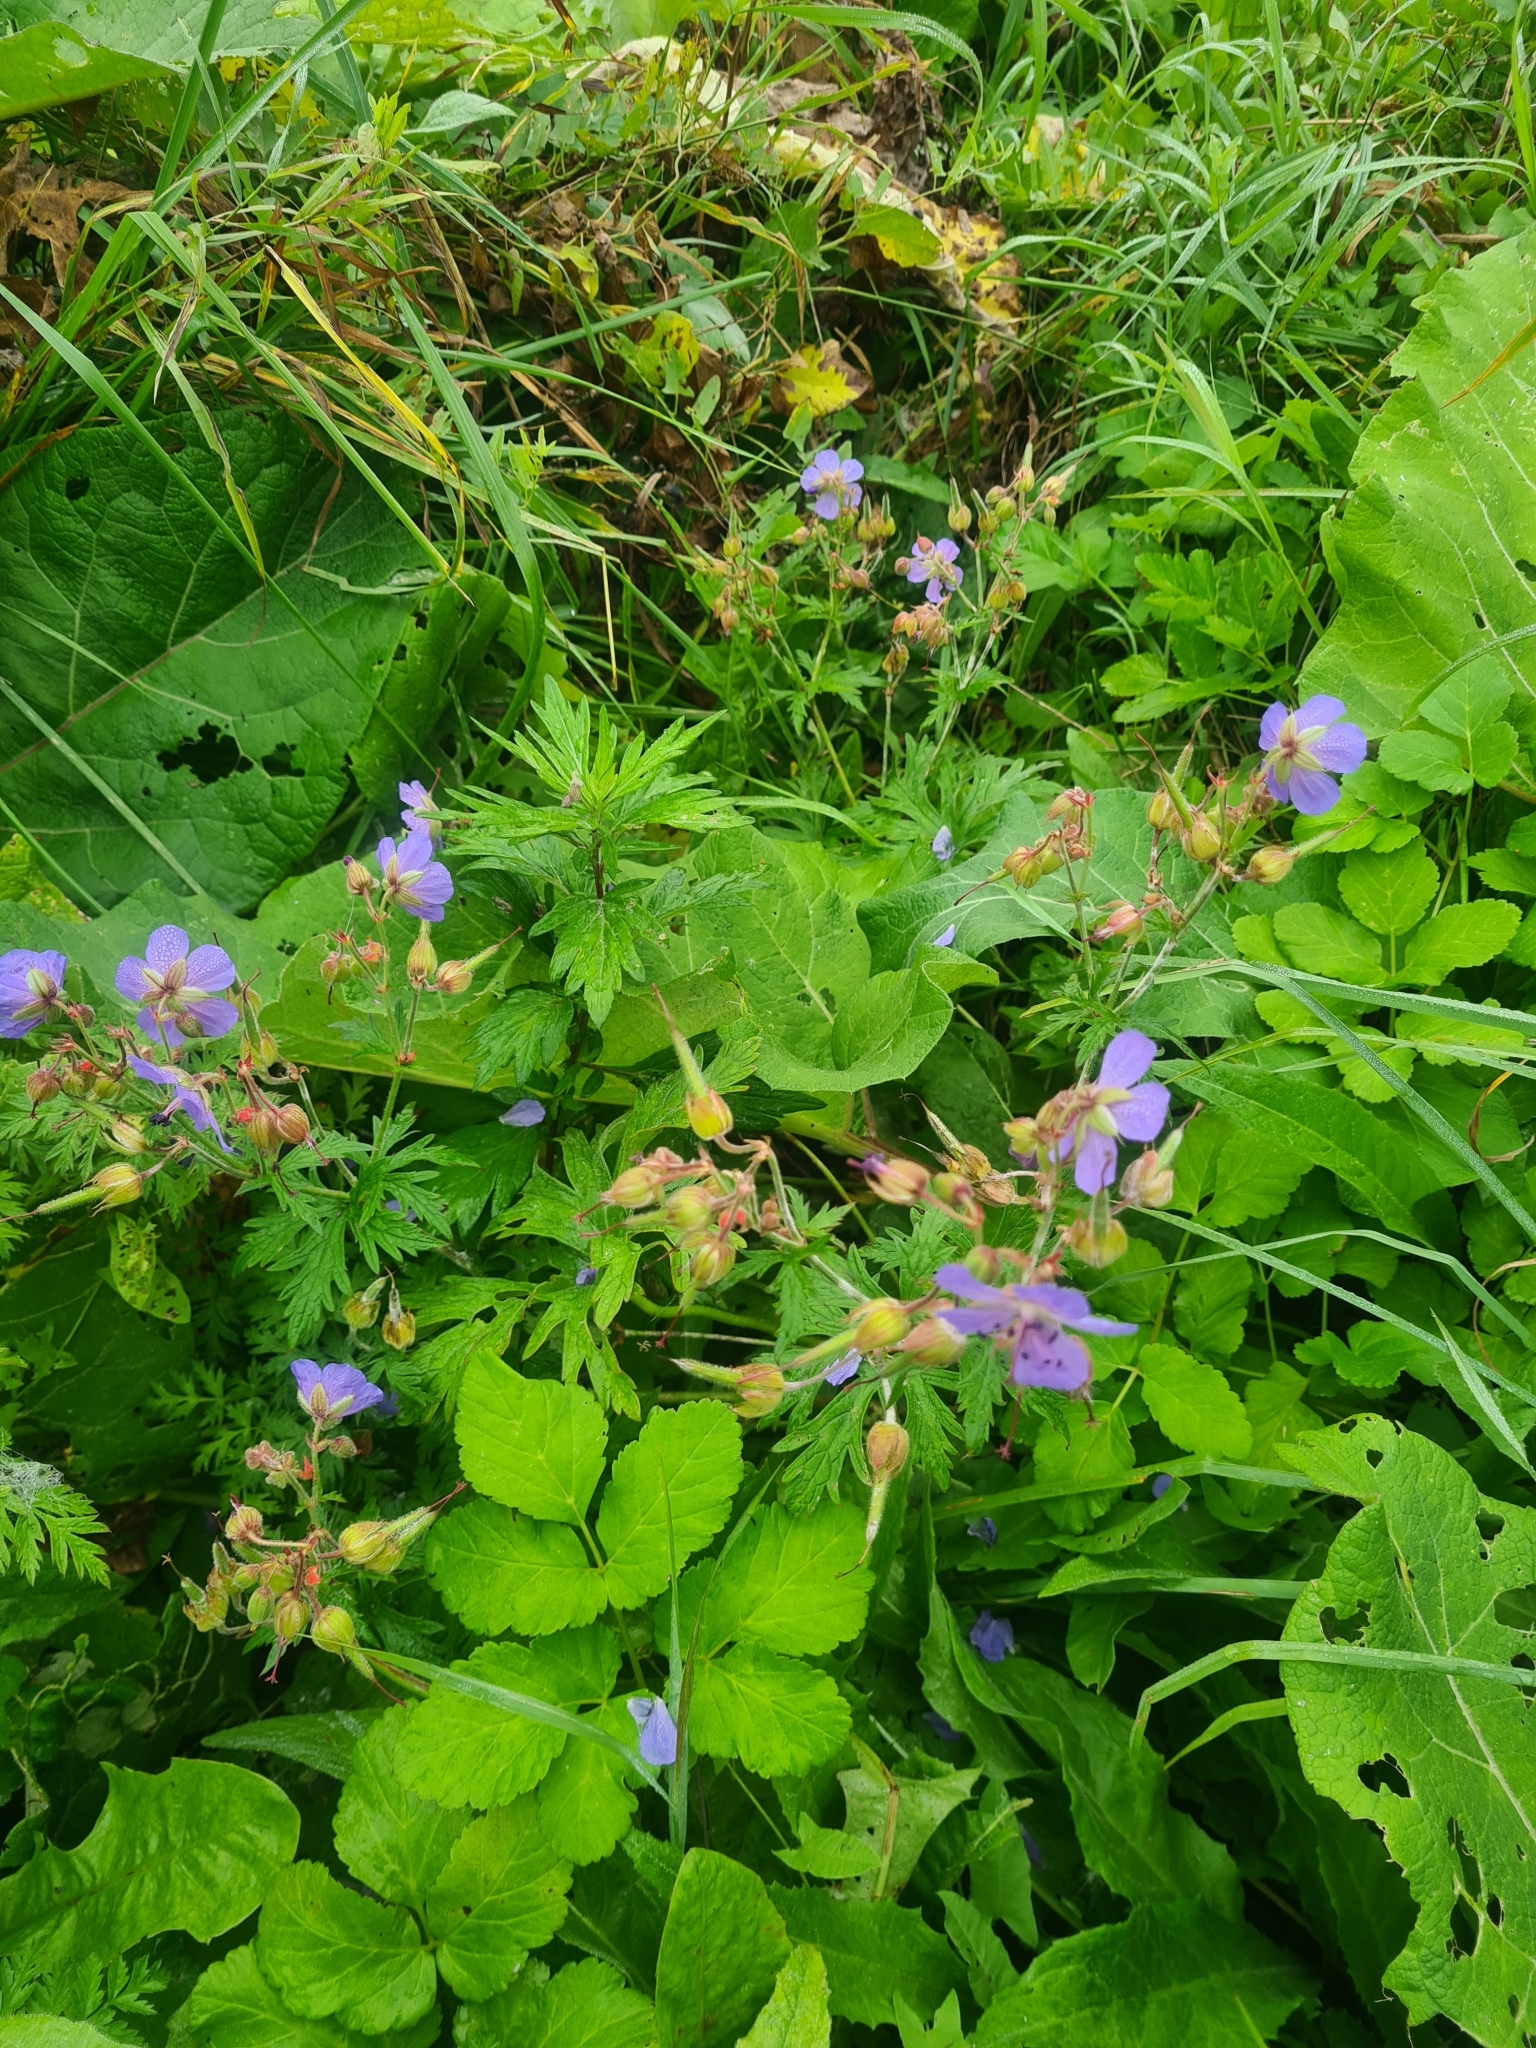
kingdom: Plantae
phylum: Tracheophyta
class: Magnoliopsida
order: Geraniales
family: Geraniaceae
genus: Geranium
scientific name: Geranium pratense
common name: Meadow crane's-bill
